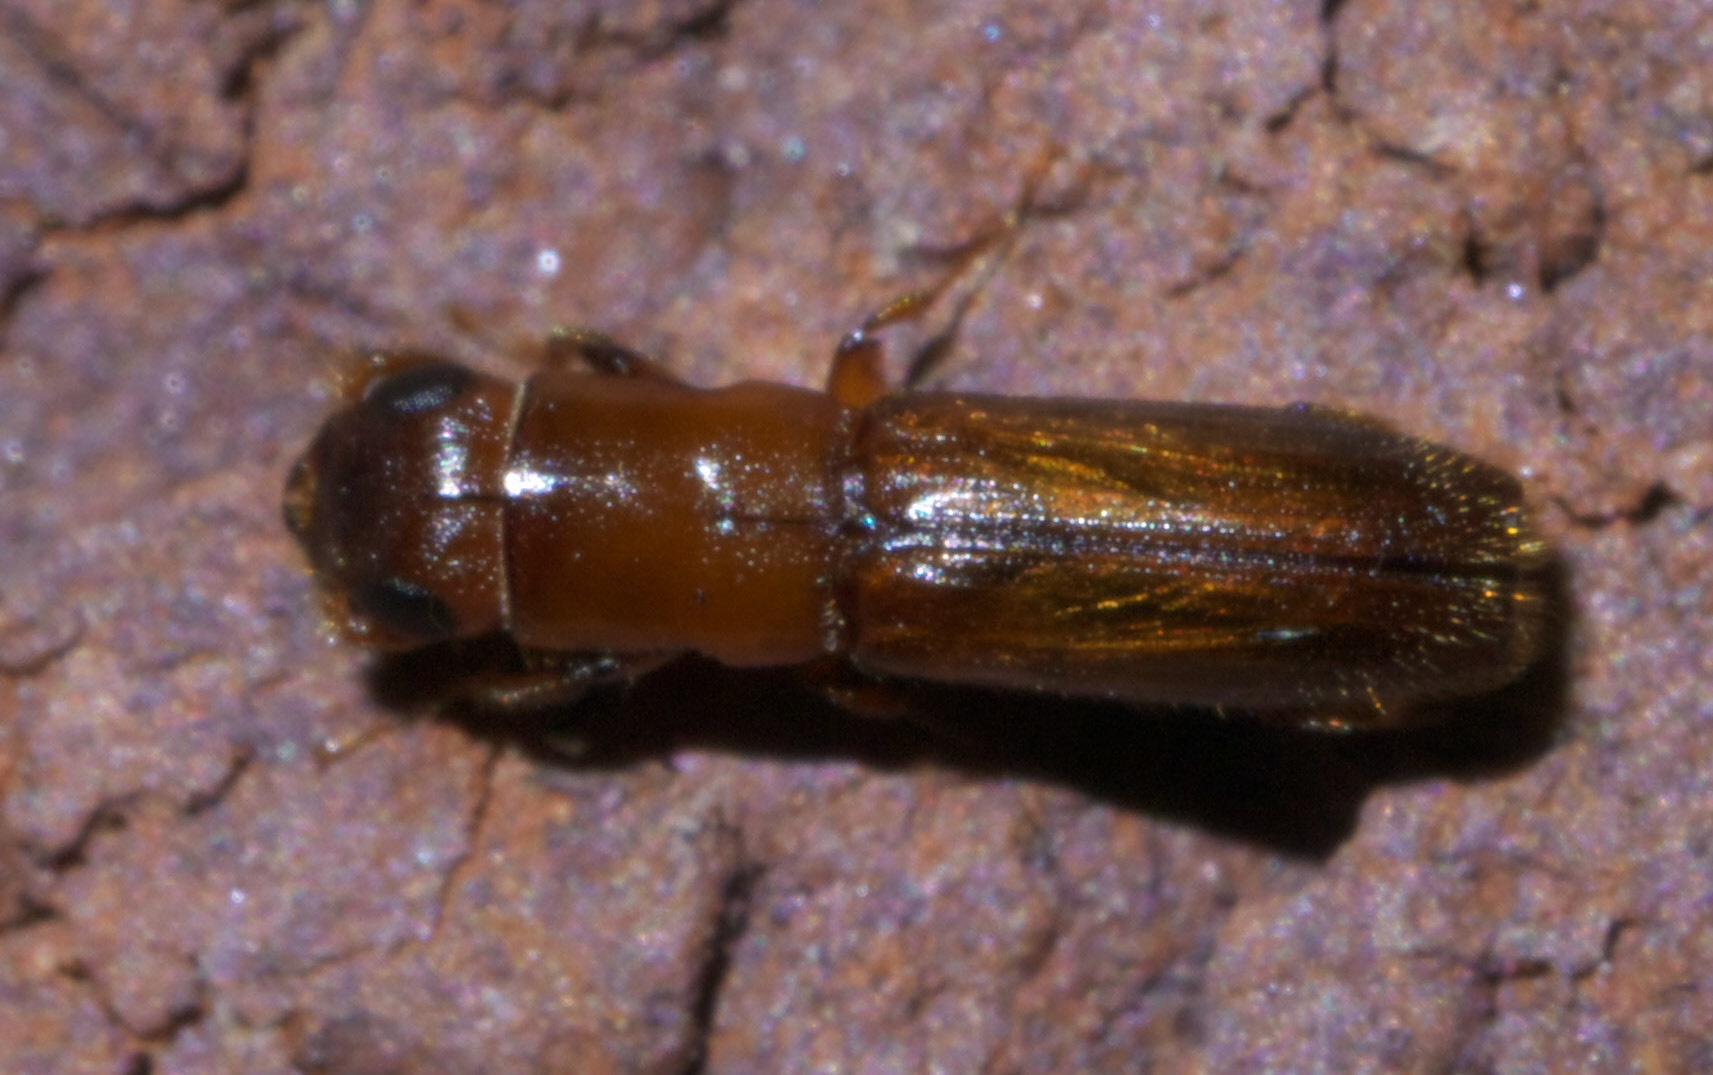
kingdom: Animalia
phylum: Arthropoda
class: Insecta
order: Coleoptera
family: Curculionidae
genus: Euplatypus
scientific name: Euplatypus compositus
